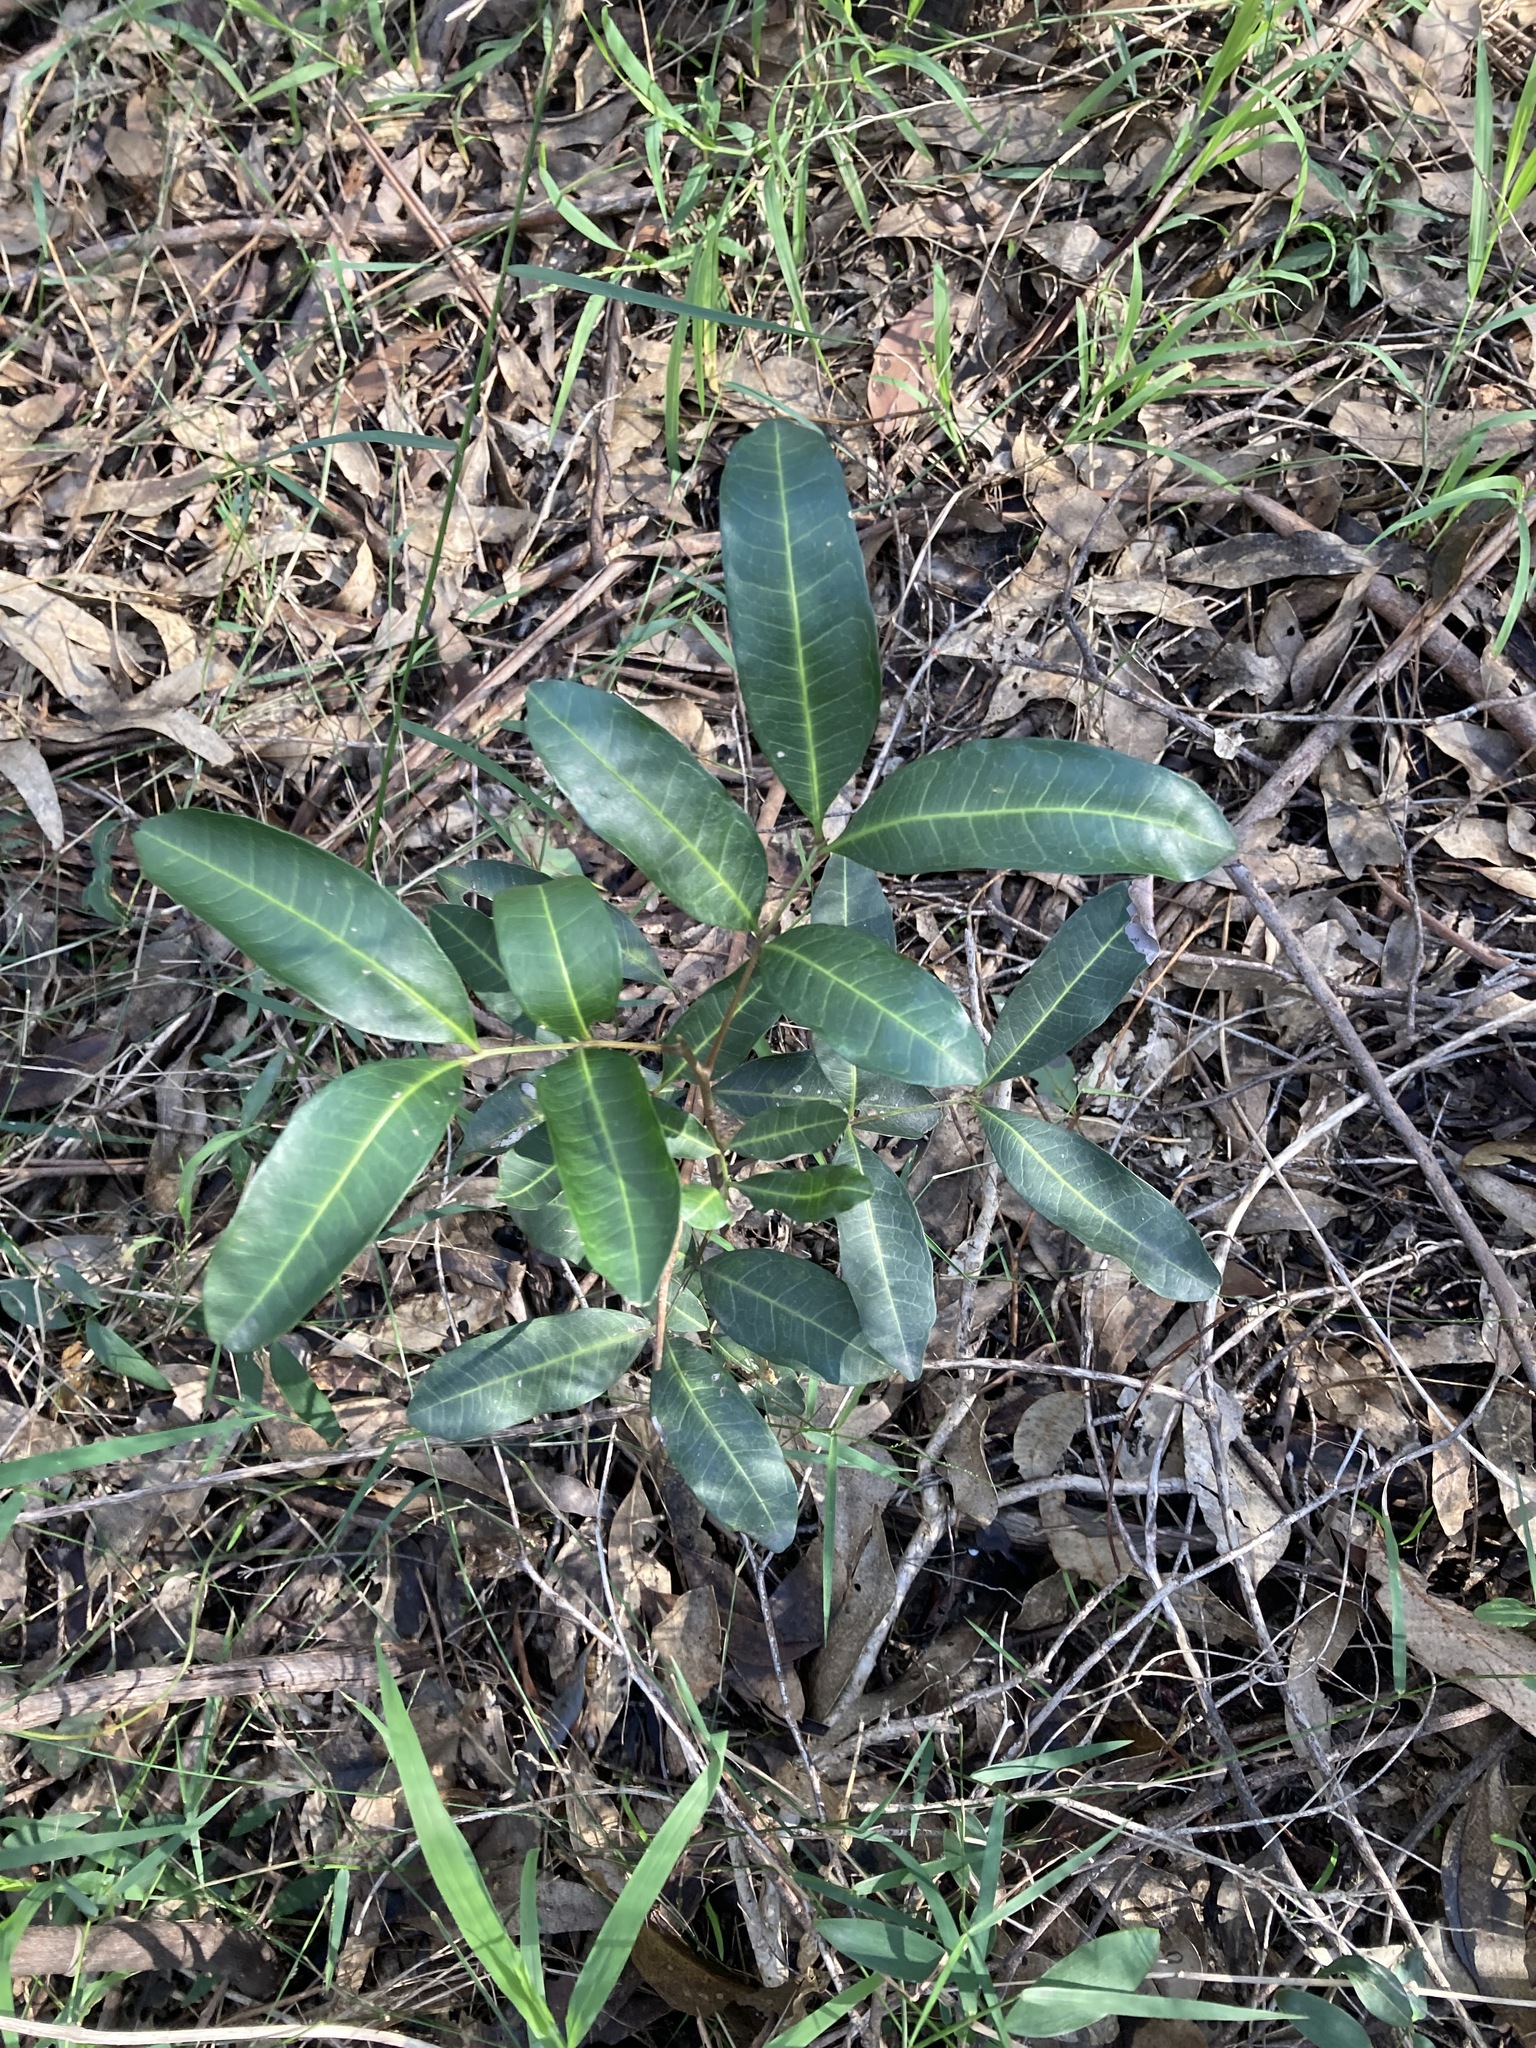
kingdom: Plantae
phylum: Tracheophyta
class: Magnoliopsida
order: Sapindales
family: Sapindaceae
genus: Cupaniopsis
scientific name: Cupaniopsis anacardioides
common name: Carrotwood
